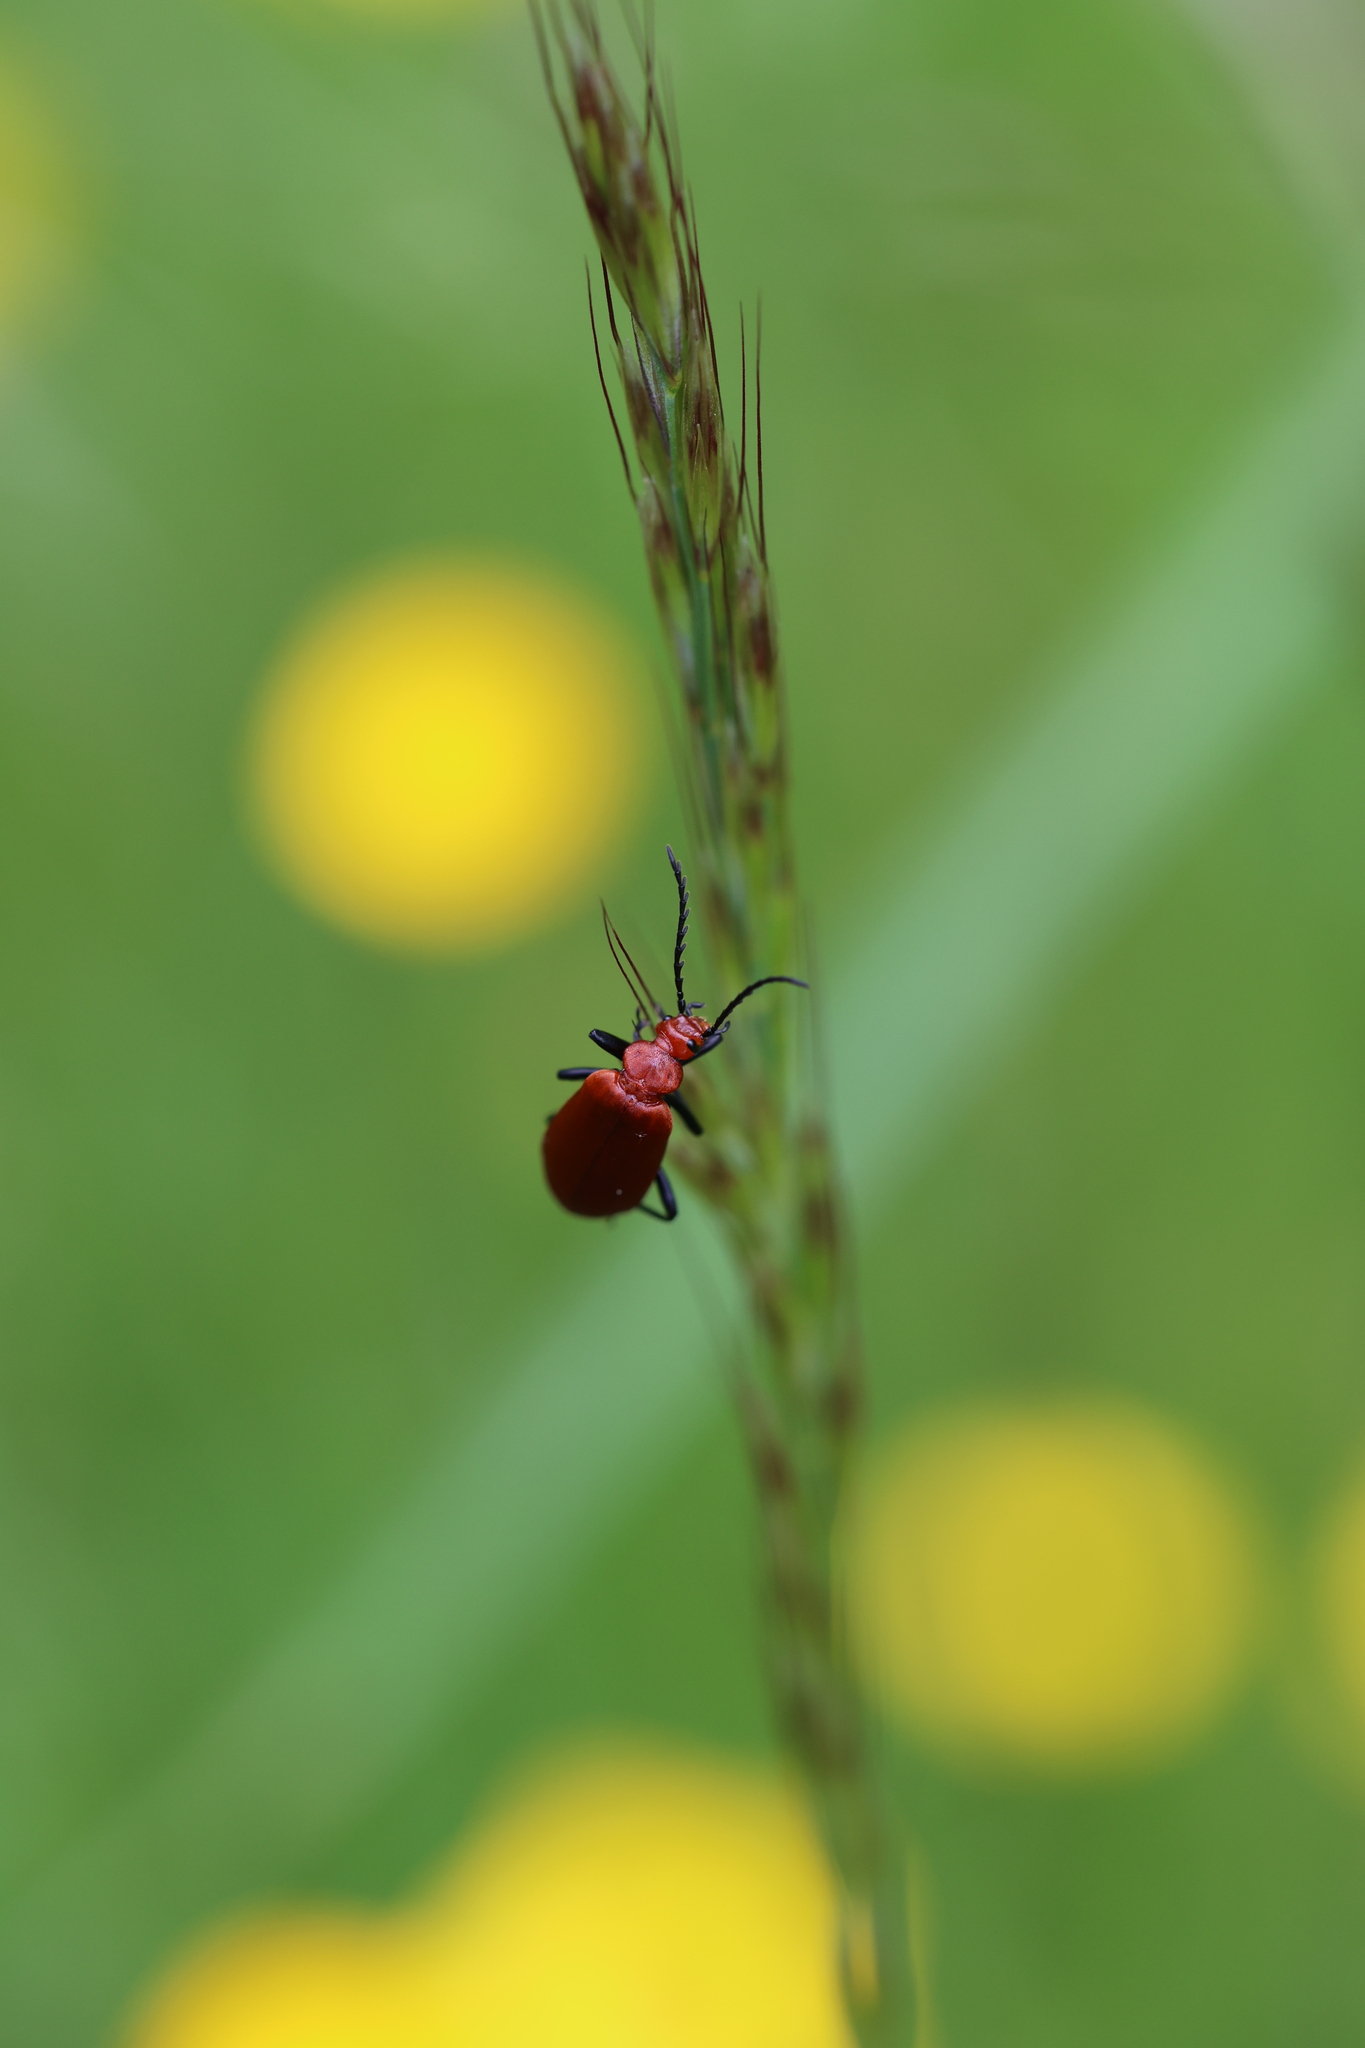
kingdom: Animalia
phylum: Arthropoda
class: Insecta
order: Coleoptera
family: Pyrochroidae
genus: Pyrochroa
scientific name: Pyrochroa serraticornis
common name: Red-headed cardinal beetle
